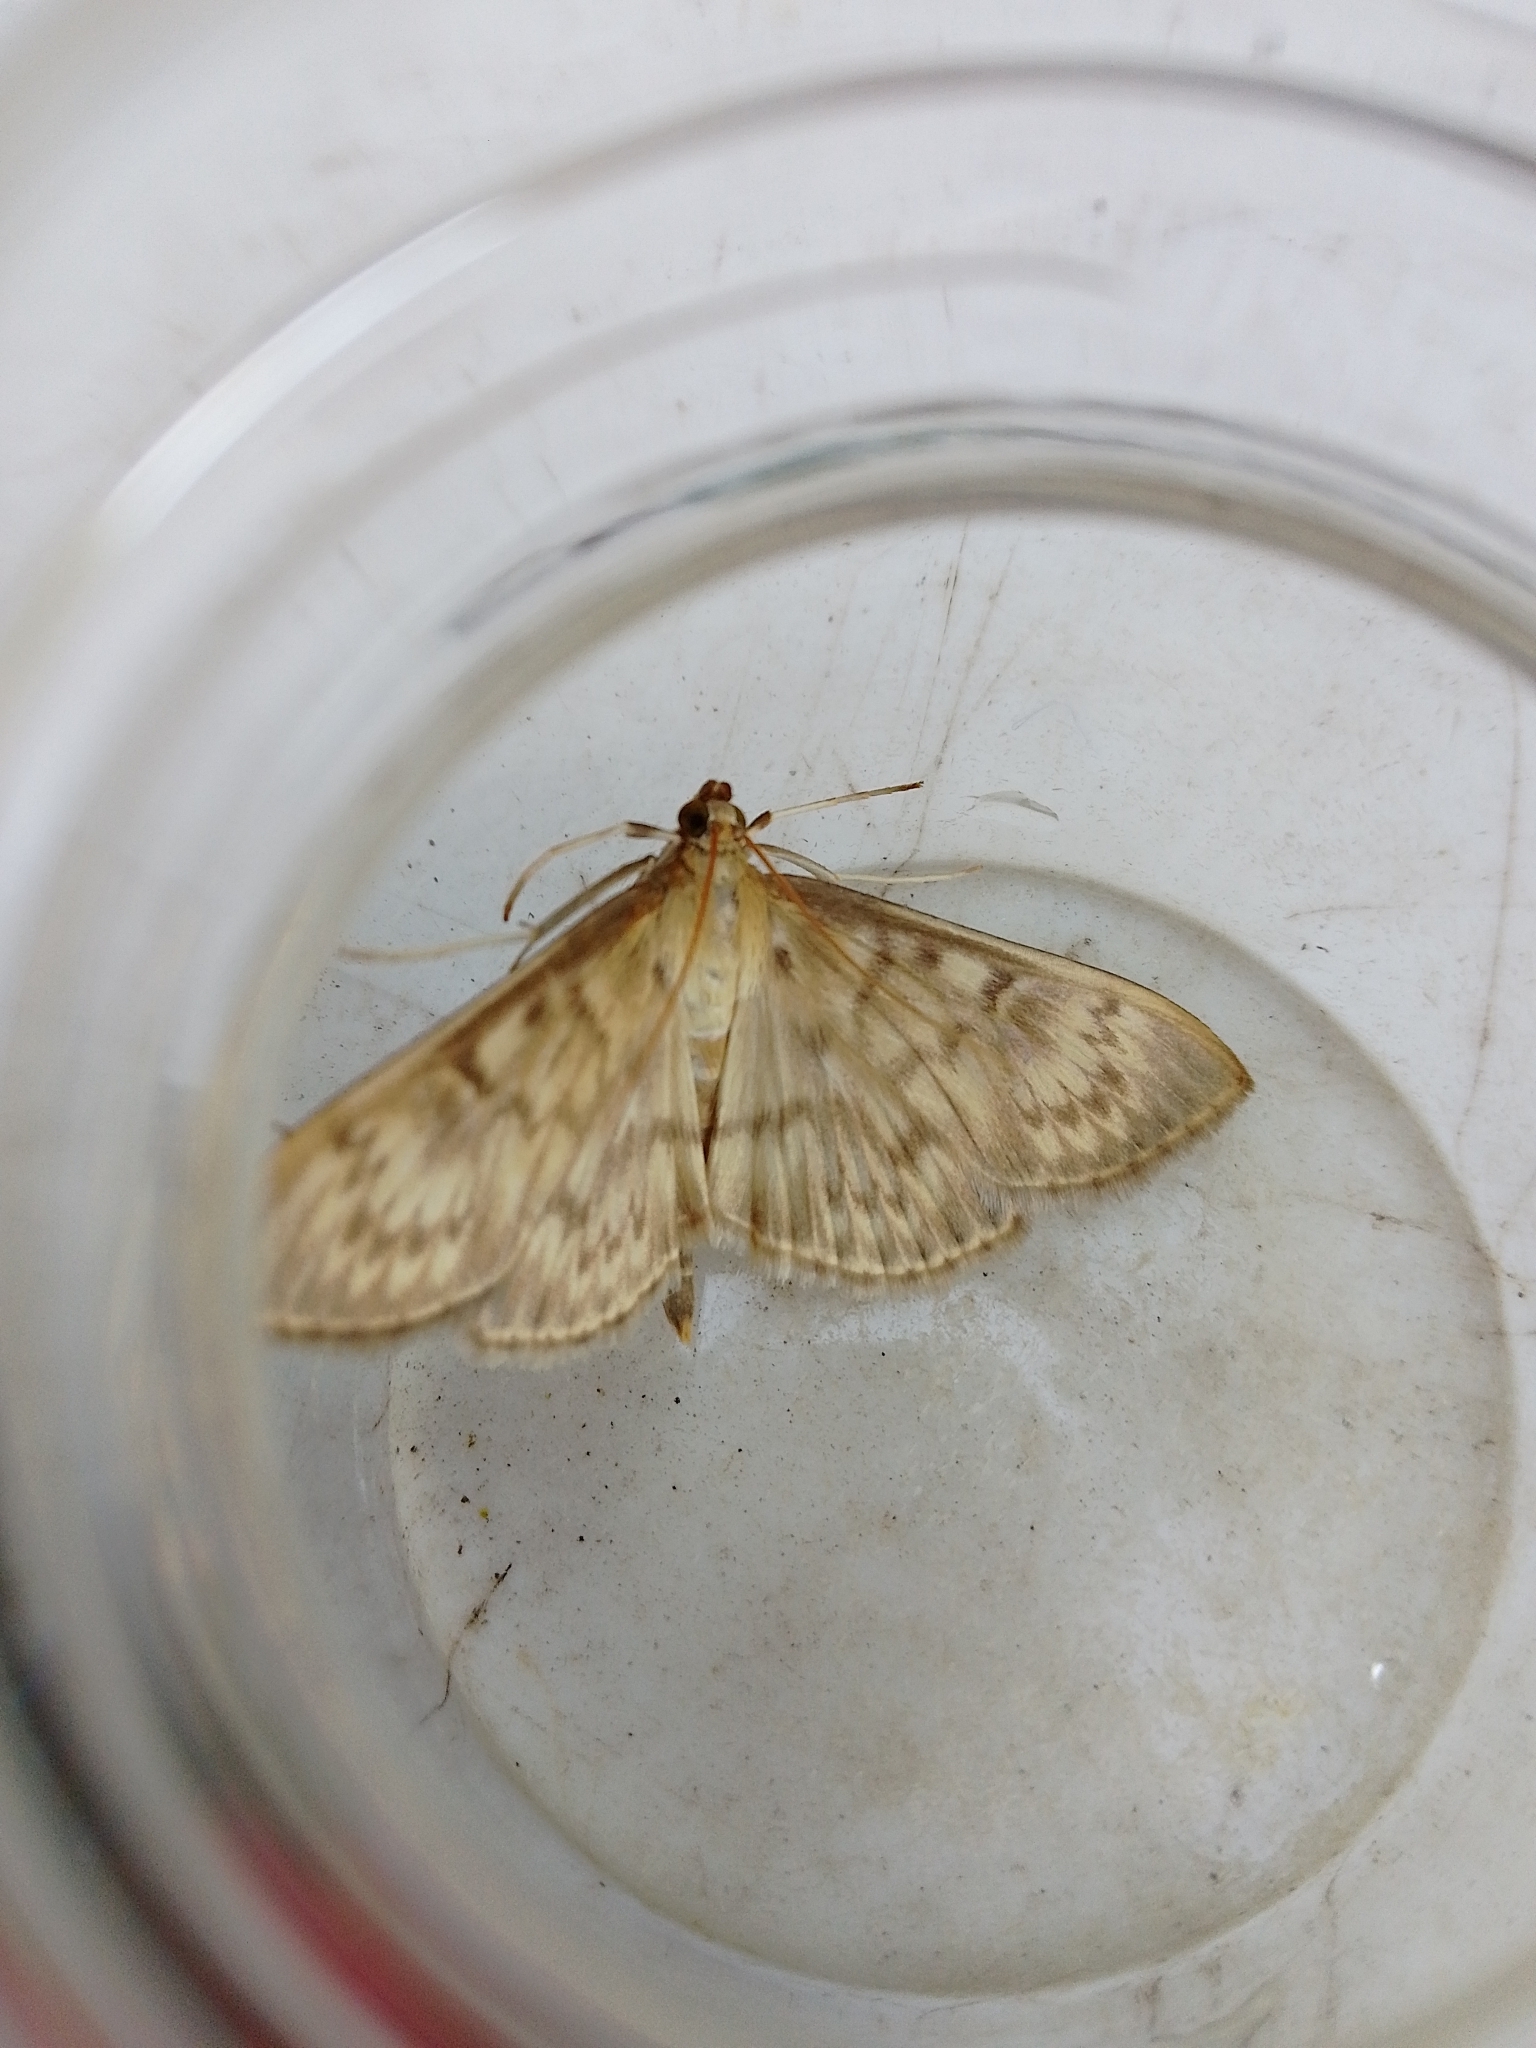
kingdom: Animalia
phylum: Arthropoda
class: Insecta
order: Lepidoptera
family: Crambidae
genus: Patania
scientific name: Patania ruralis
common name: Mother of pearl
